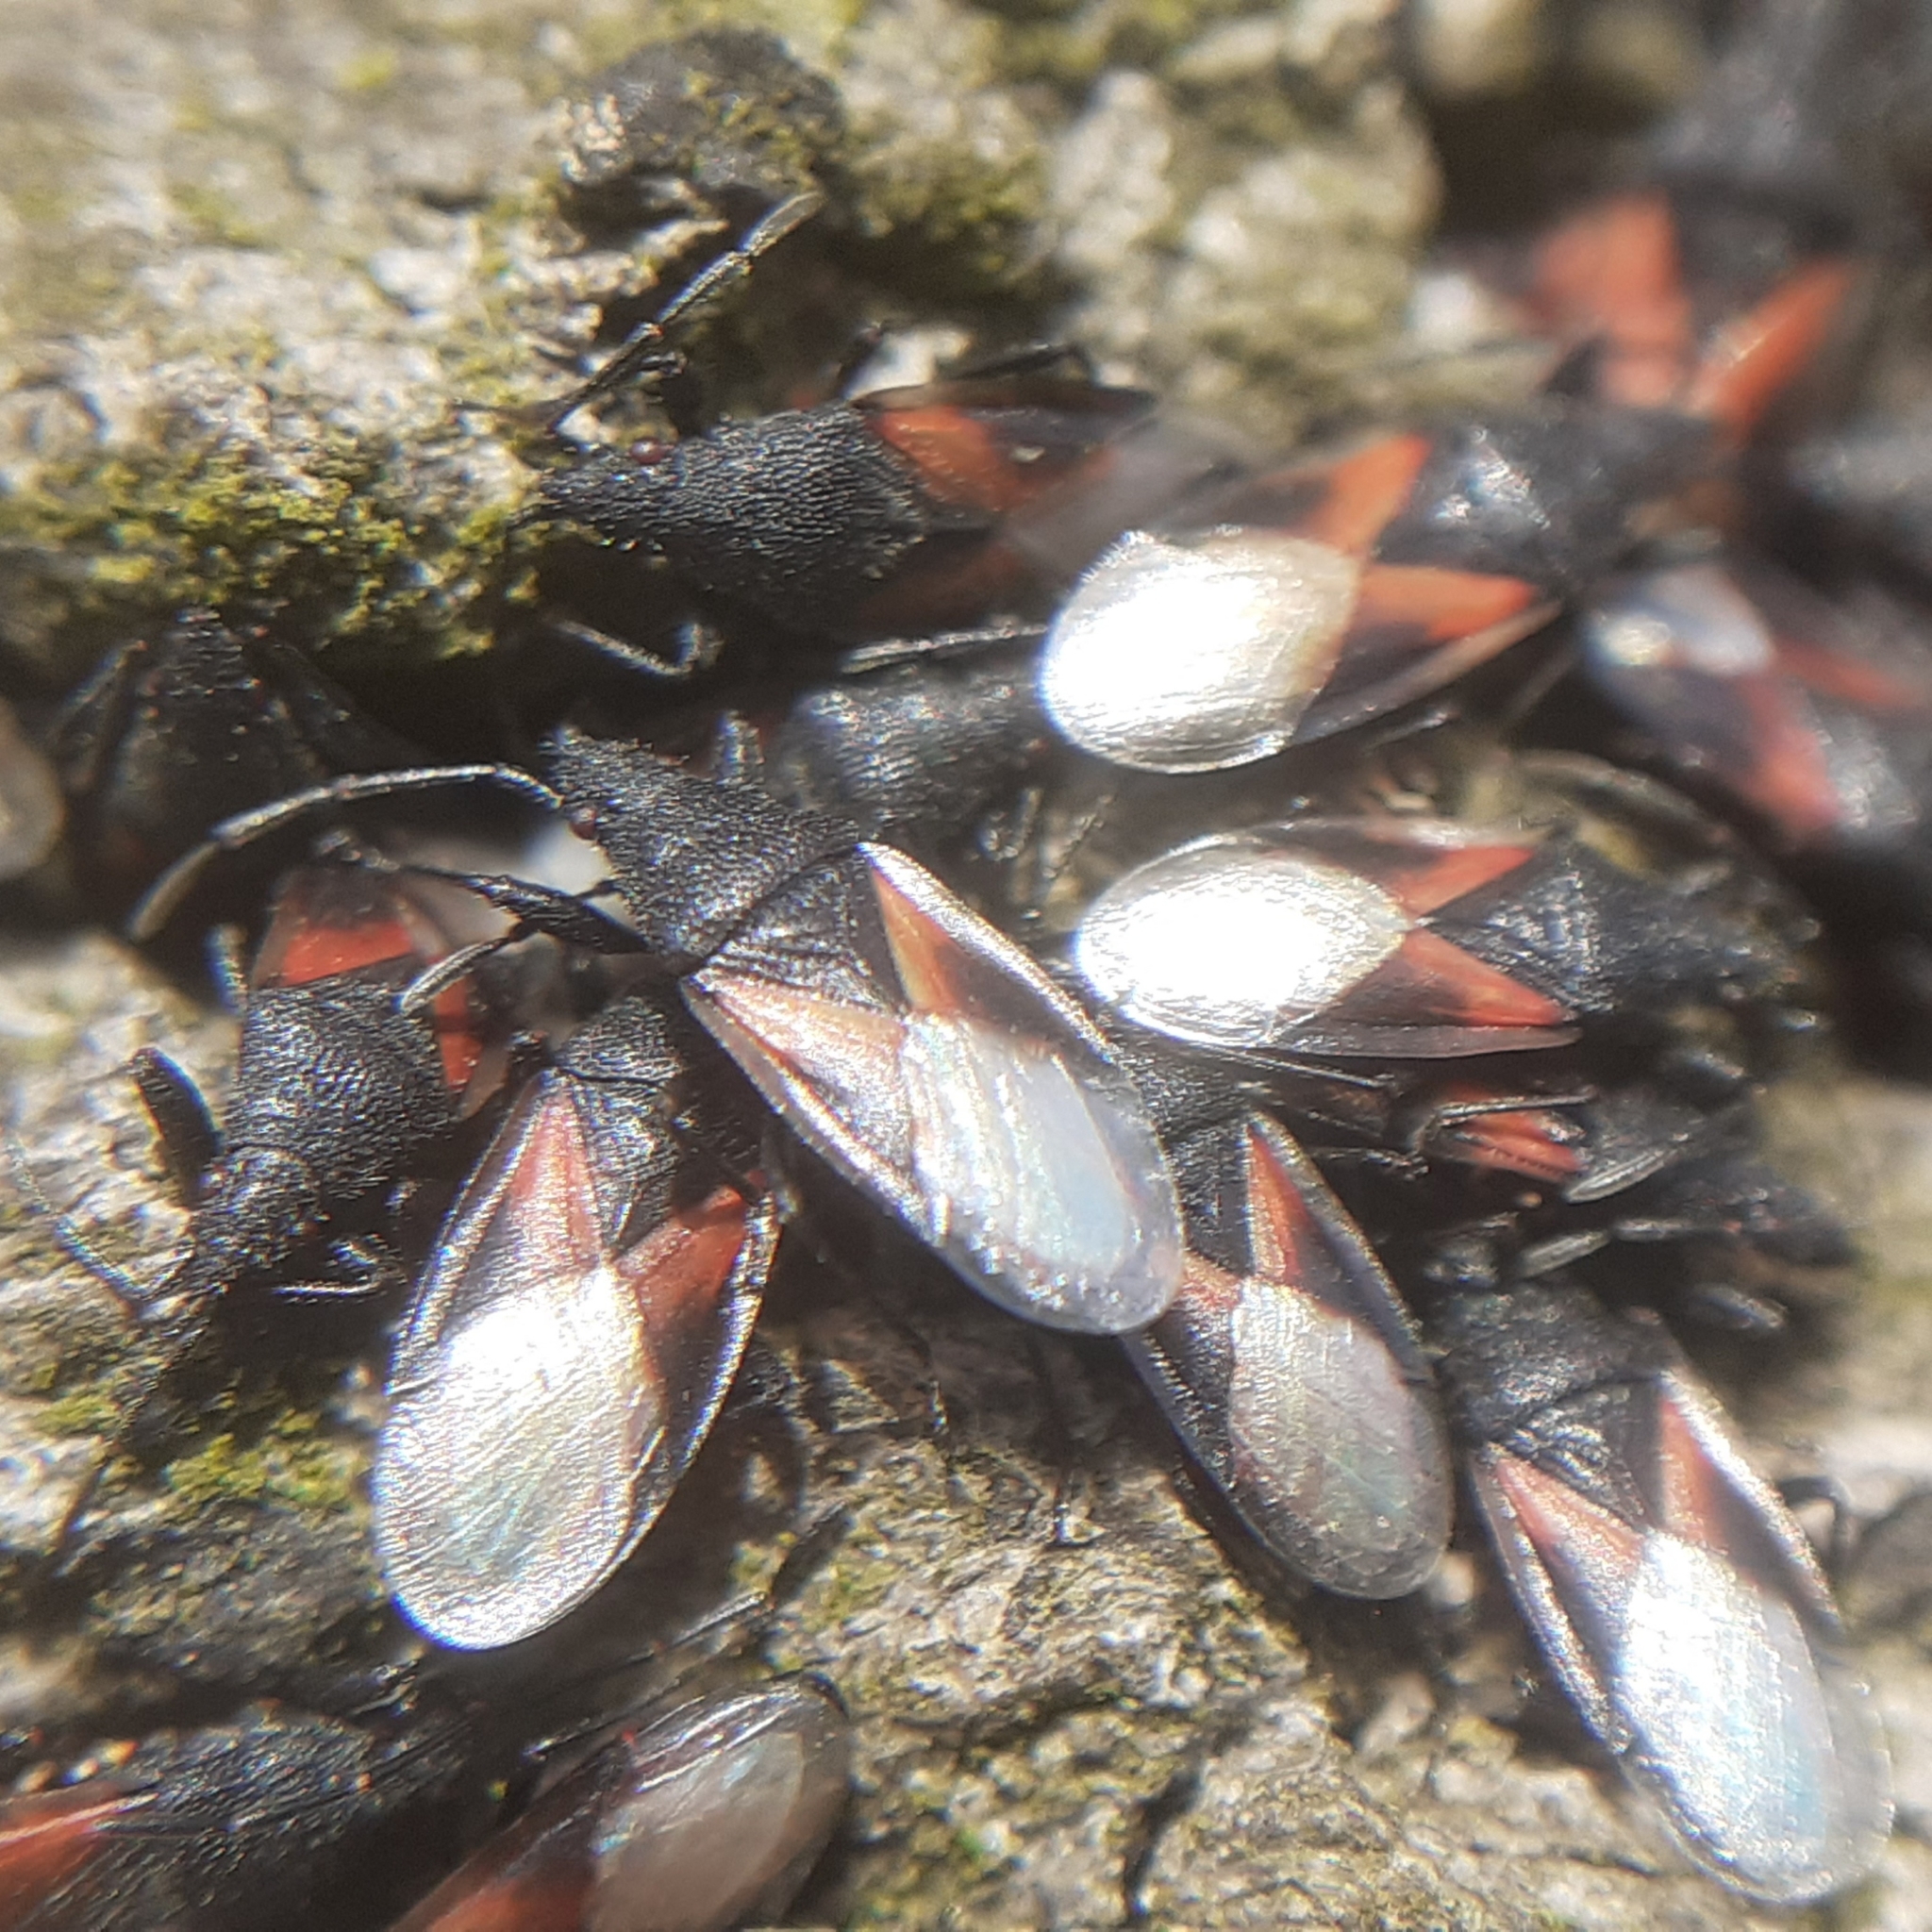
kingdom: Animalia
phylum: Arthropoda
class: Insecta
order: Hemiptera
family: Oxycarenidae
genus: Oxycarenus
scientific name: Oxycarenus lavaterae
